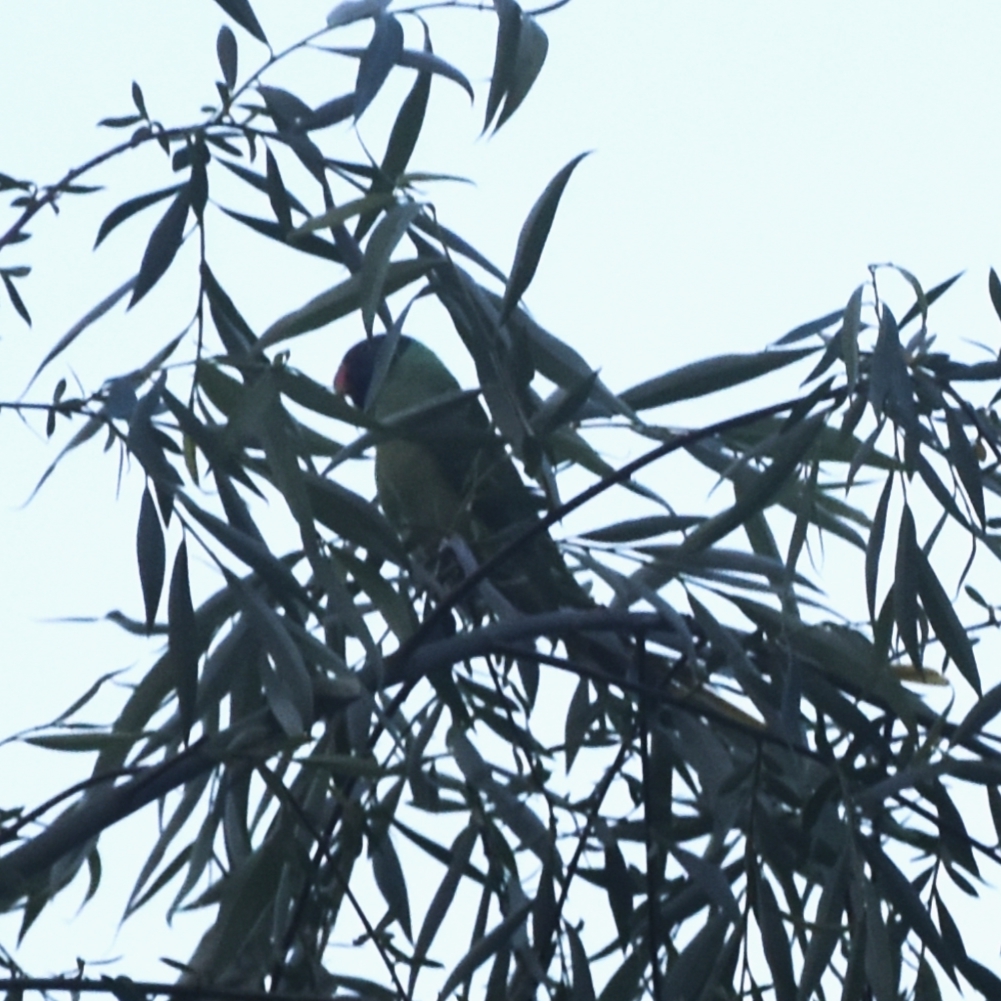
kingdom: Animalia
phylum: Chordata
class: Aves
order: Psittaciformes
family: Psittacidae
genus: Psittacula
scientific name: Psittacula himalayana
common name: Slaty-headed parakeet
